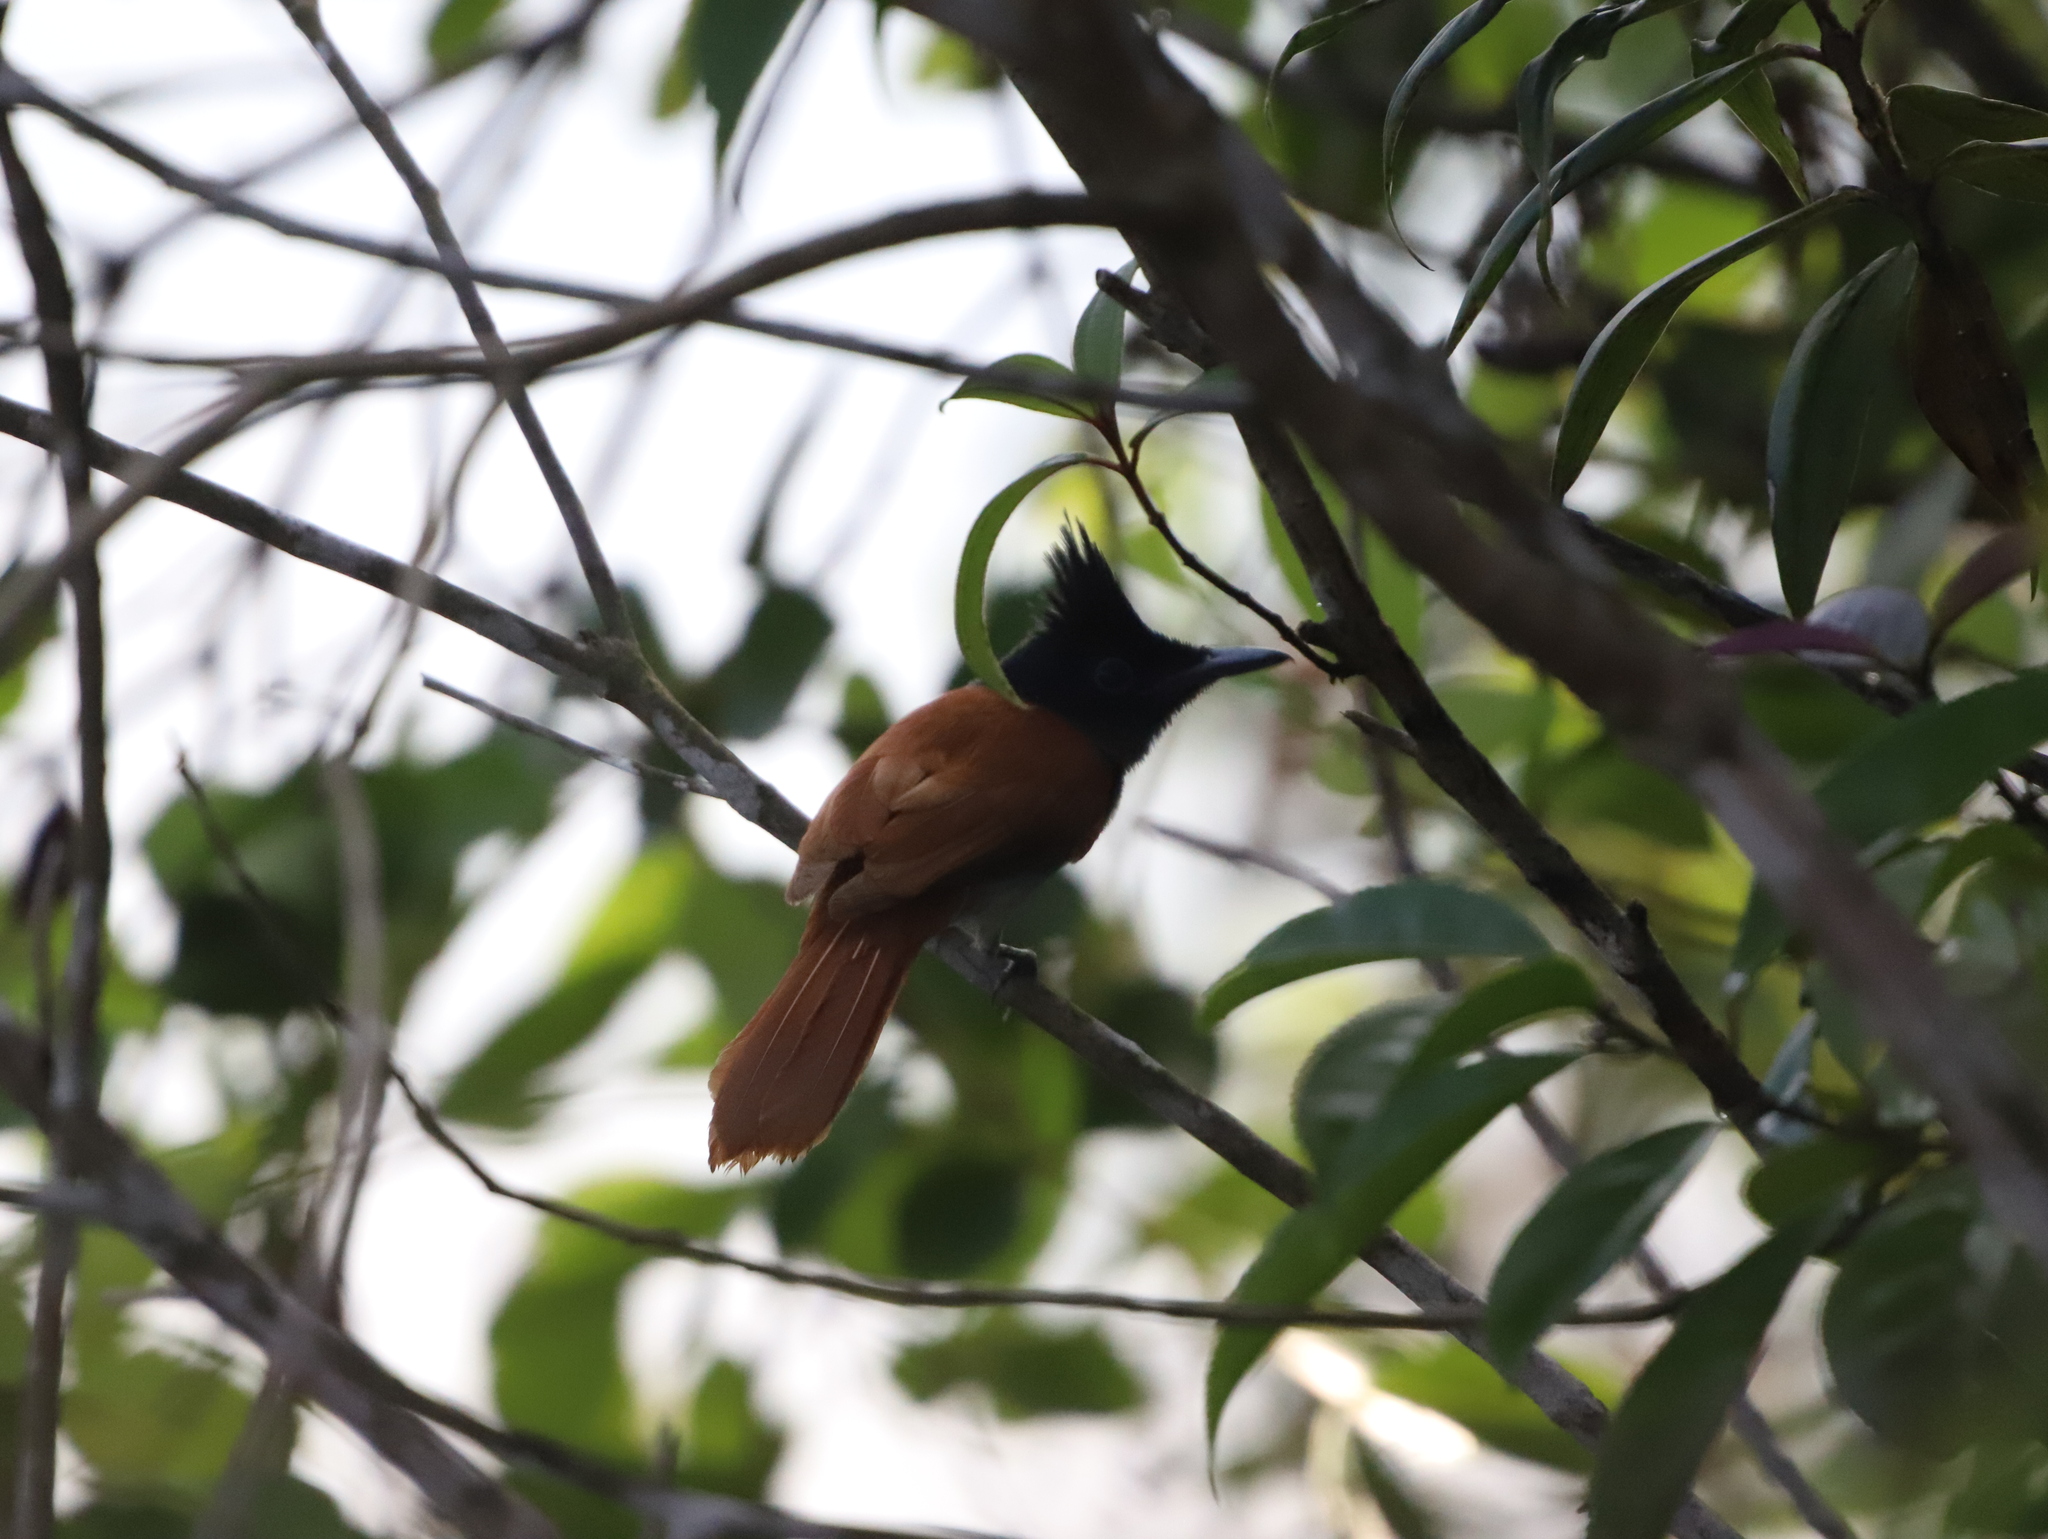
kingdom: Animalia
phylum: Chordata
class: Aves
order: Passeriformes
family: Monarchidae
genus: Terpsiphone
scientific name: Terpsiphone paradisi
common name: Indian paradise flycatcher
